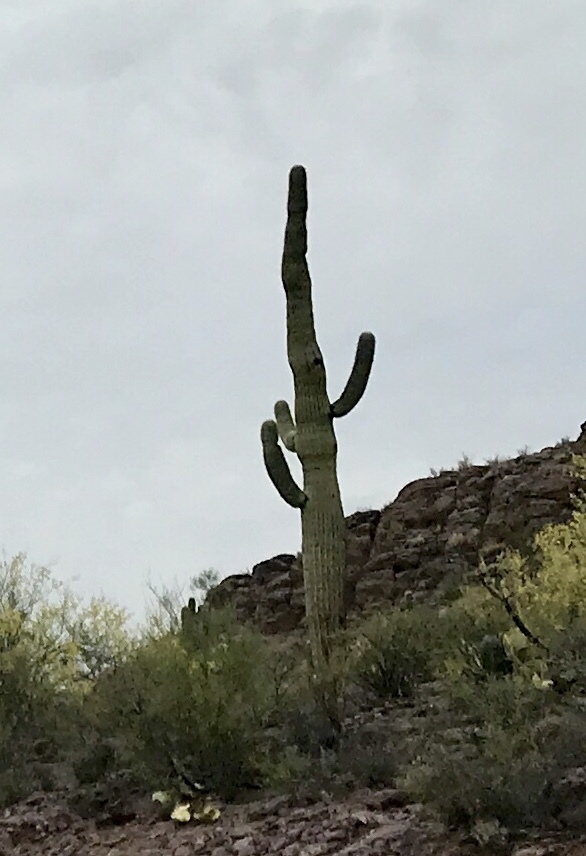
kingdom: Plantae
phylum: Tracheophyta
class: Magnoliopsida
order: Caryophyllales
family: Cactaceae
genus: Carnegiea
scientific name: Carnegiea gigantea
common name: Saguaro
